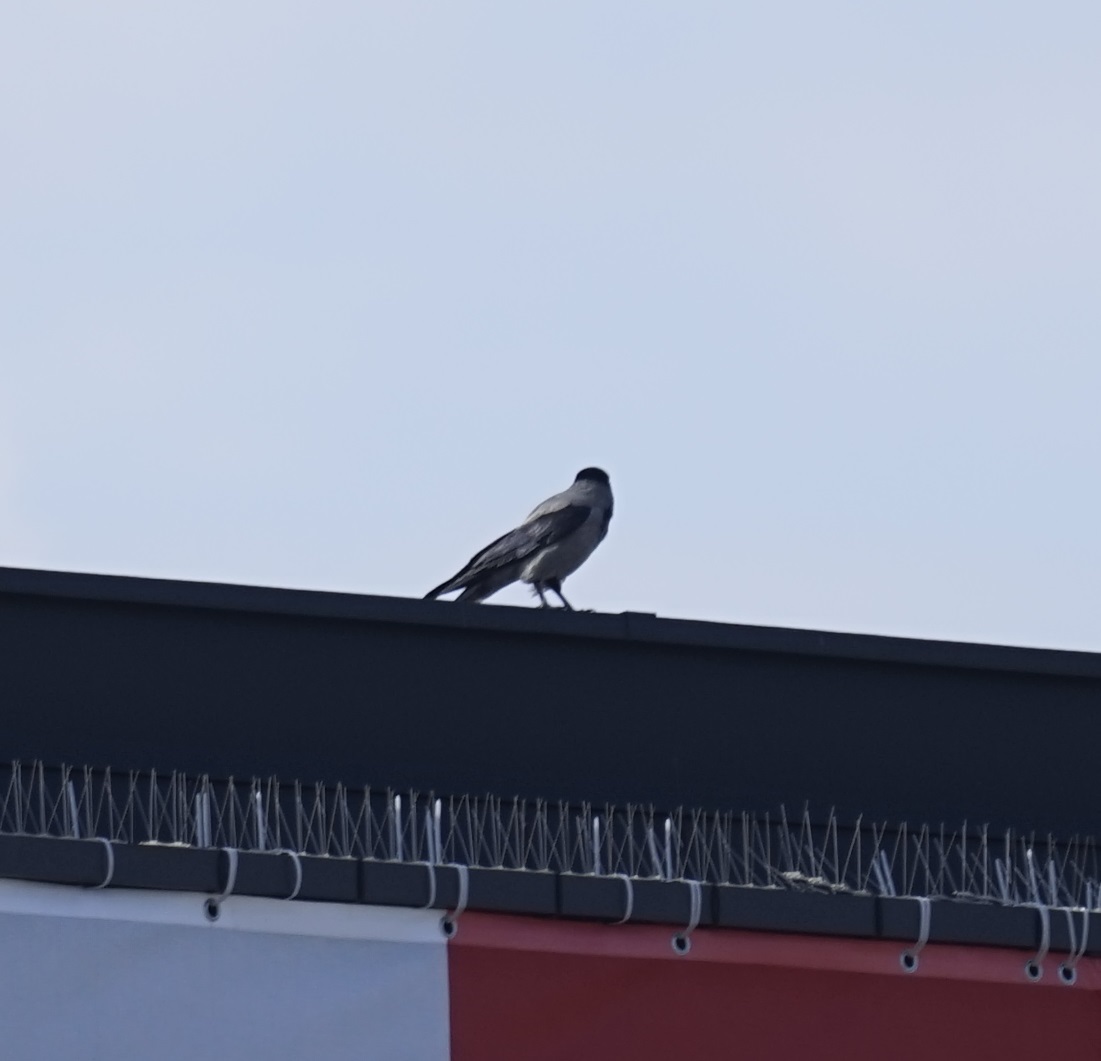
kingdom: Animalia
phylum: Chordata
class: Aves
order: Passeriformes
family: Corvidae
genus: Corvus
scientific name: Corvus cornix
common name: Hooded crow
